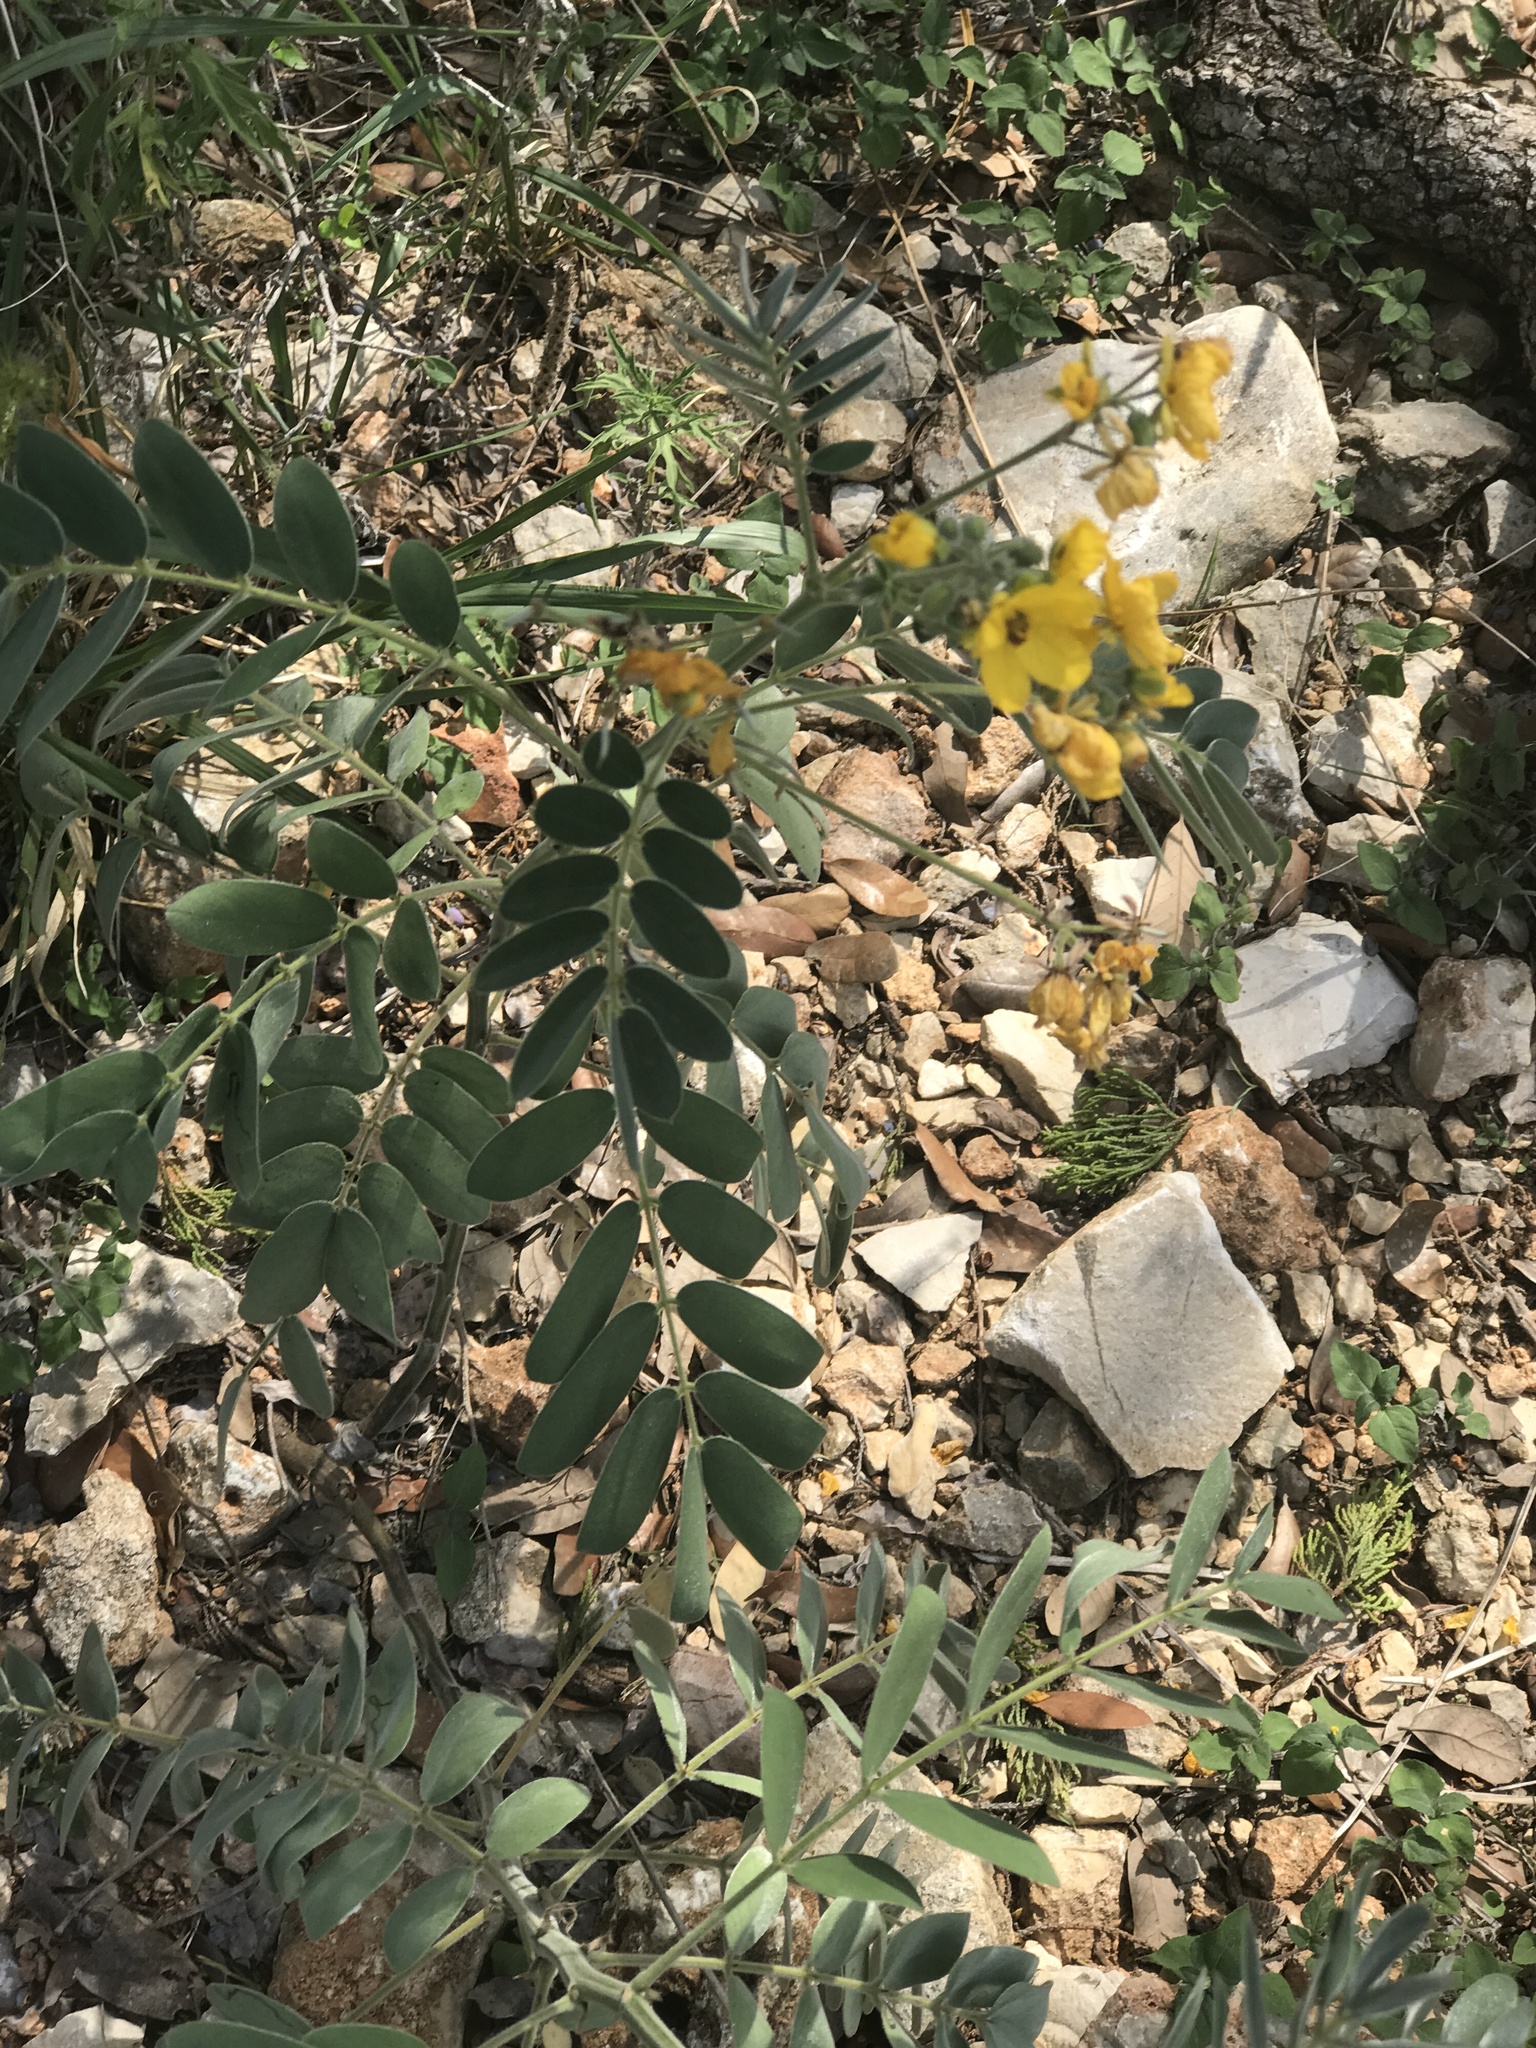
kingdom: Plantae
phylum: Tracheophyta
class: Magnoliopsida
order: Fabales
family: Fabaceae
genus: Senna
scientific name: Senna lindheimeriana
